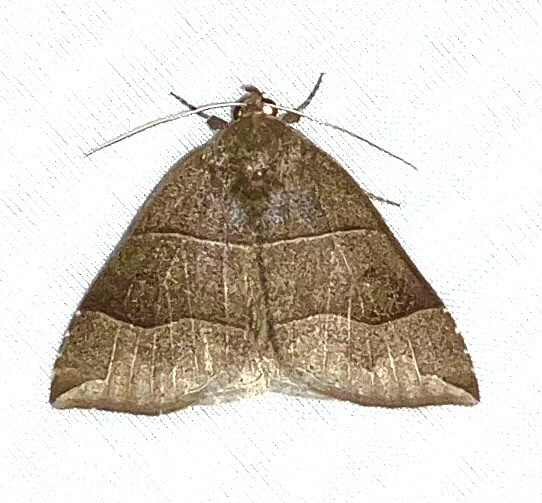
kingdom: Animalia
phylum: Arthropoda
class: Insecta
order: Lepidoptera
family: Erebidae
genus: Parallelia
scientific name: Parallelia bistriaris
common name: Maple looper moth
